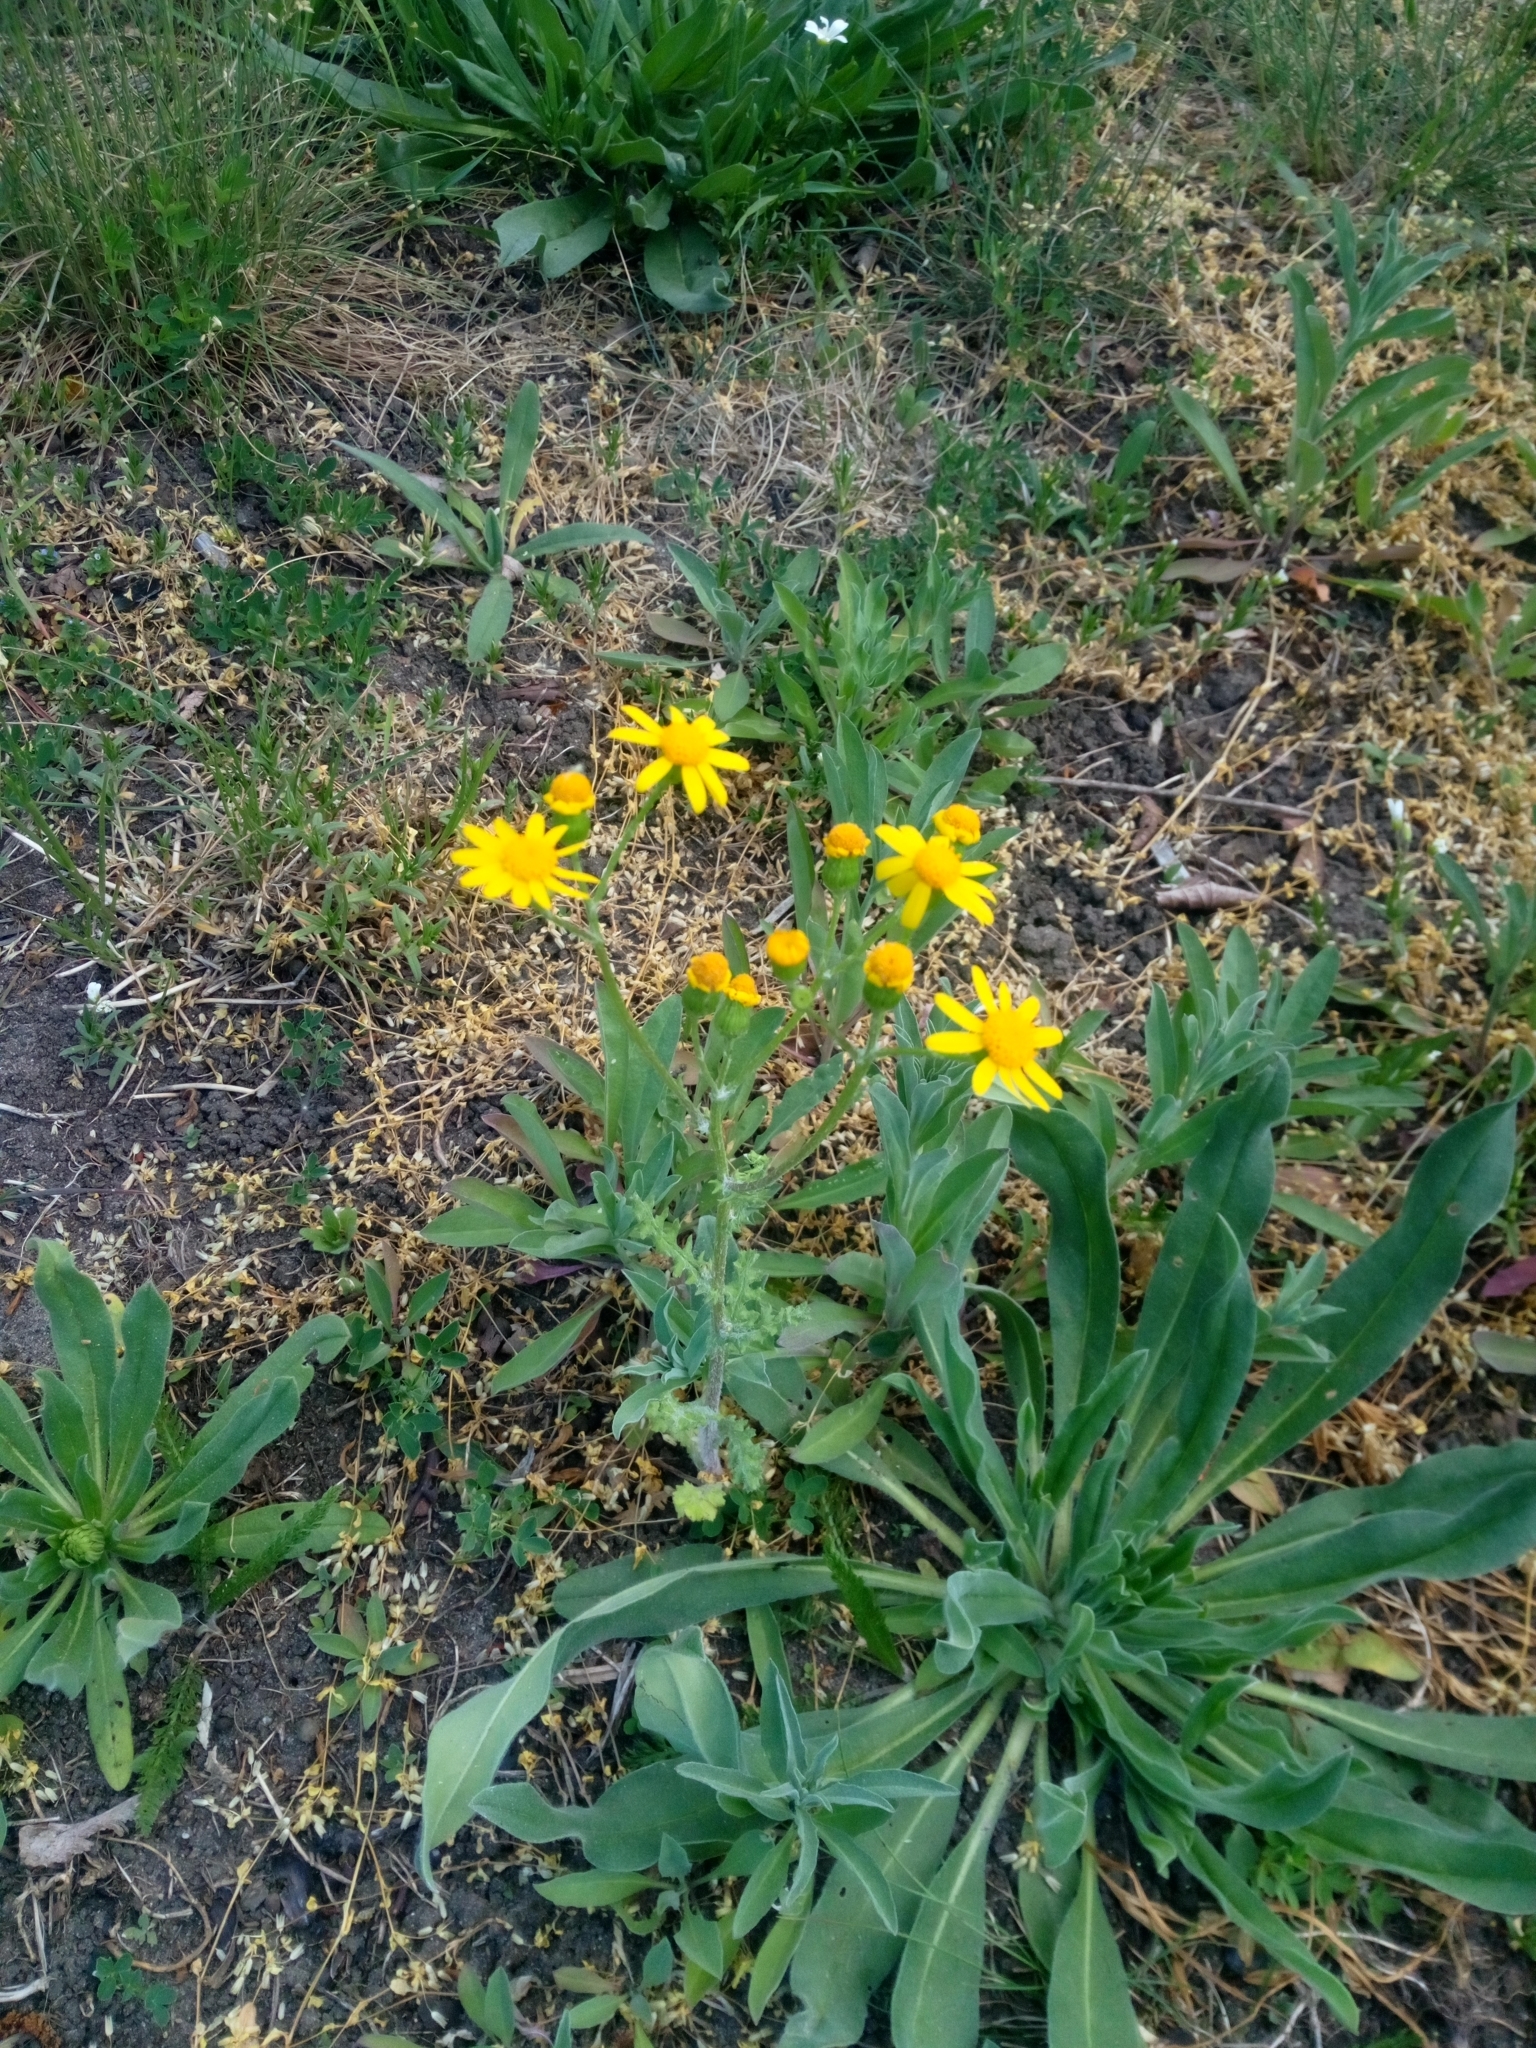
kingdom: Plantae
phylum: Tracheophyta
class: Magnoliopsida
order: Asterales
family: Asteraceae
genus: Senecio
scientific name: Senecio vernalis
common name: Eastern groundsel
